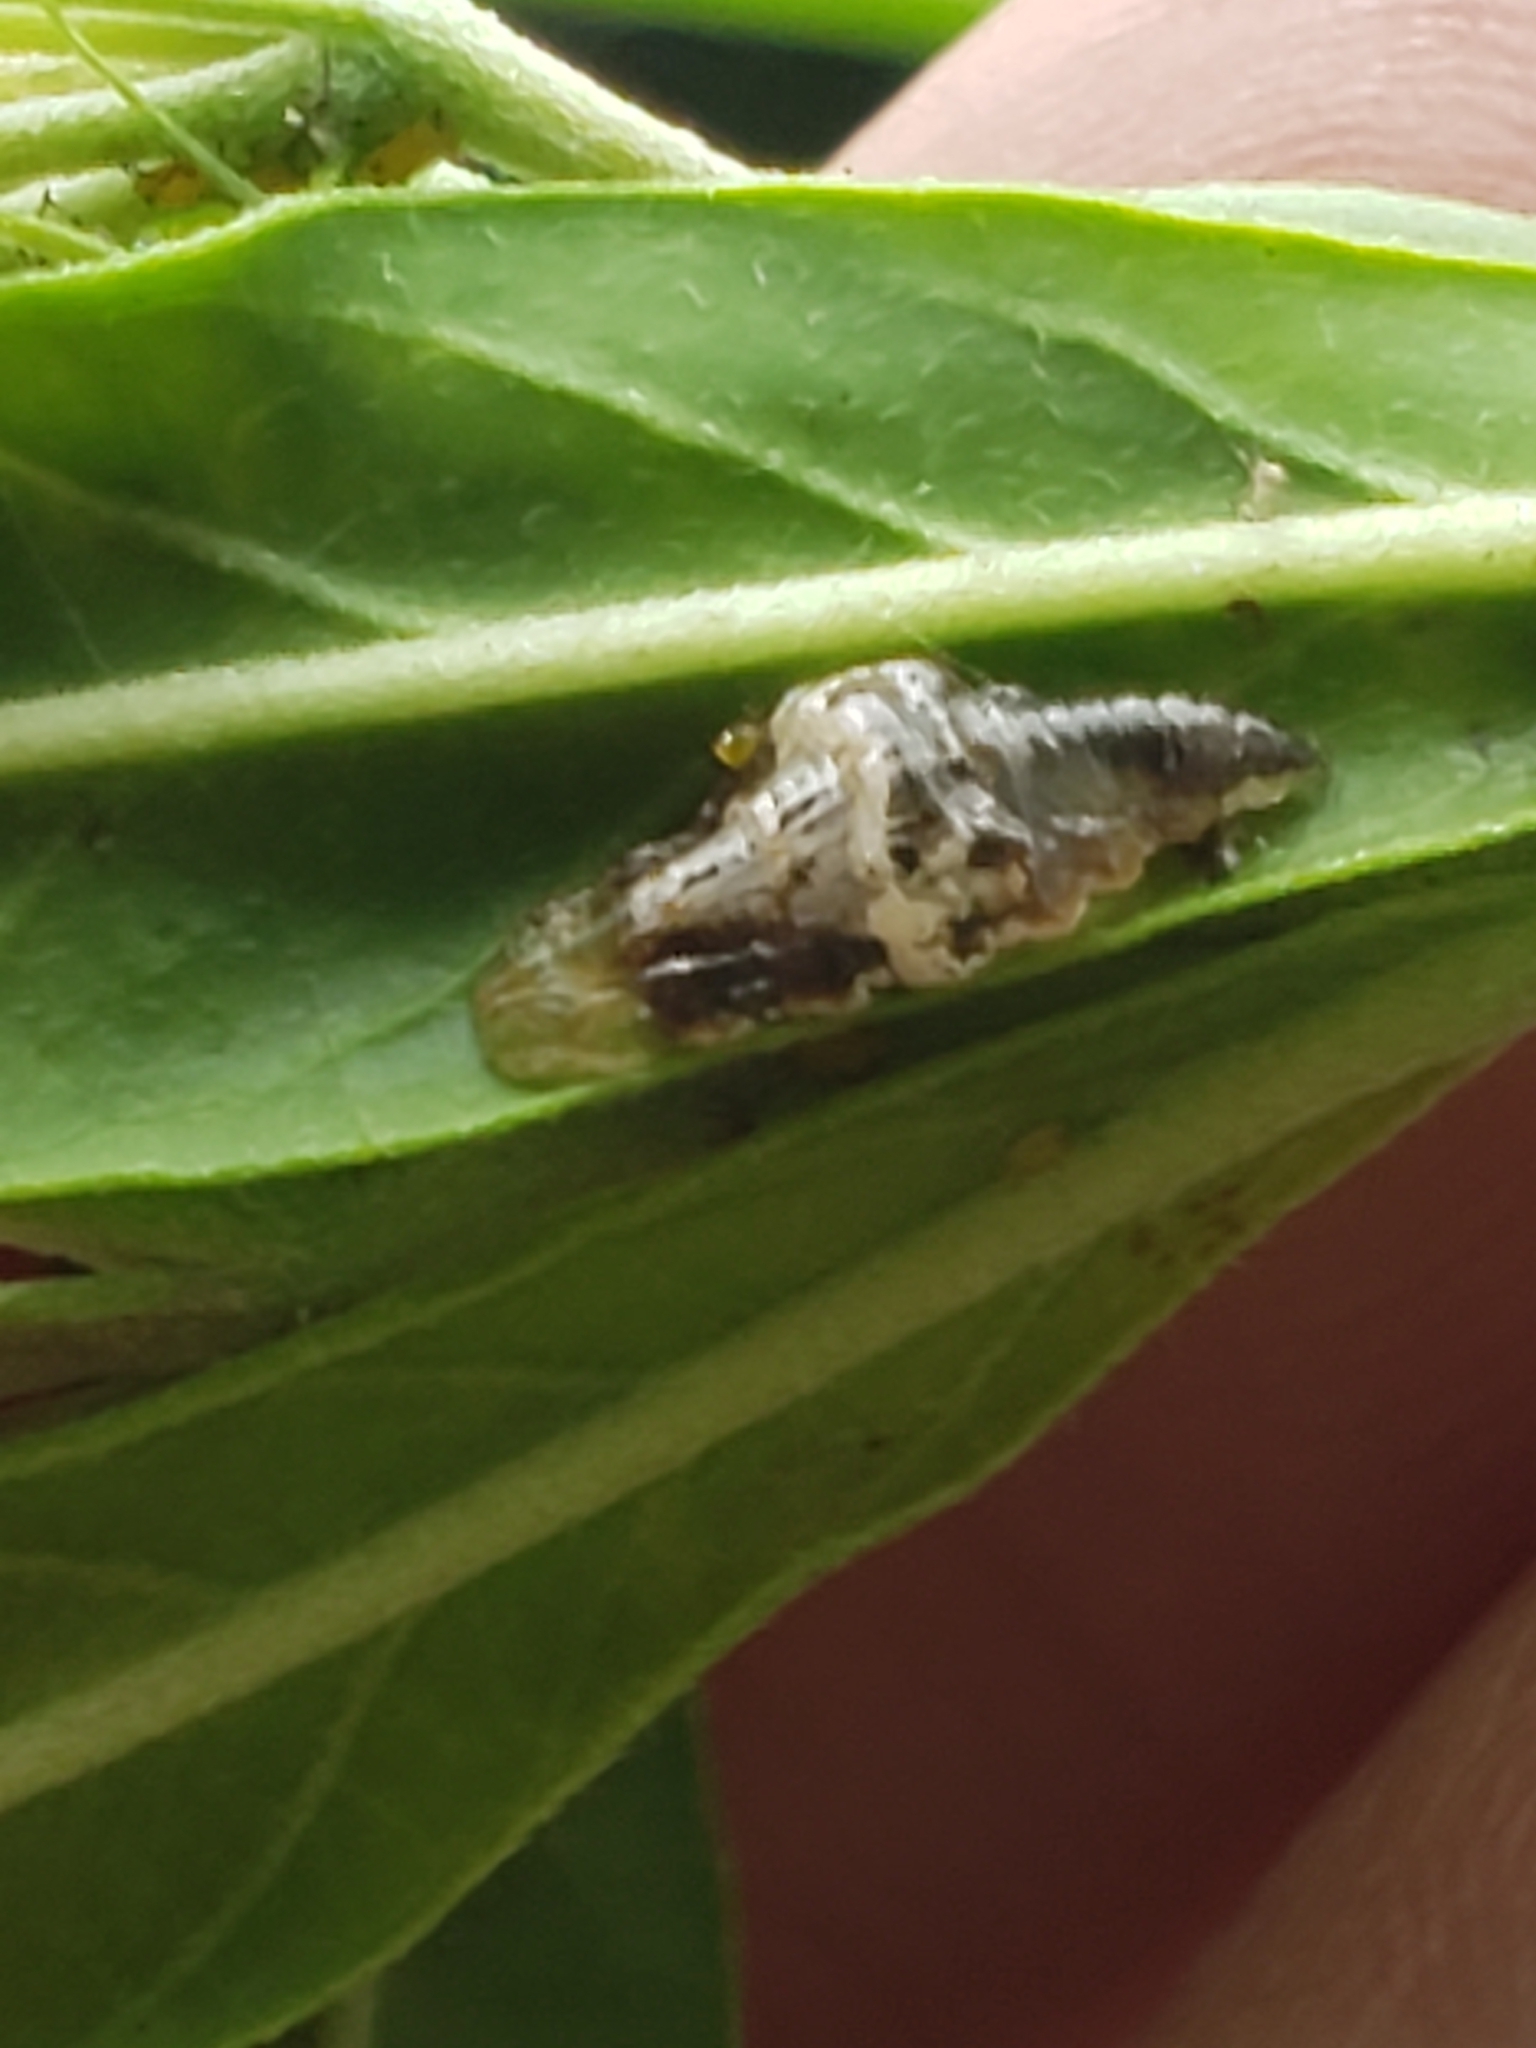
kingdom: Animalia
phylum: Arthropoda
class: Insecta
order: Diptera
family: Syrphidae
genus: Ocyptamus
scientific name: Ocyptamus fuscipennis
